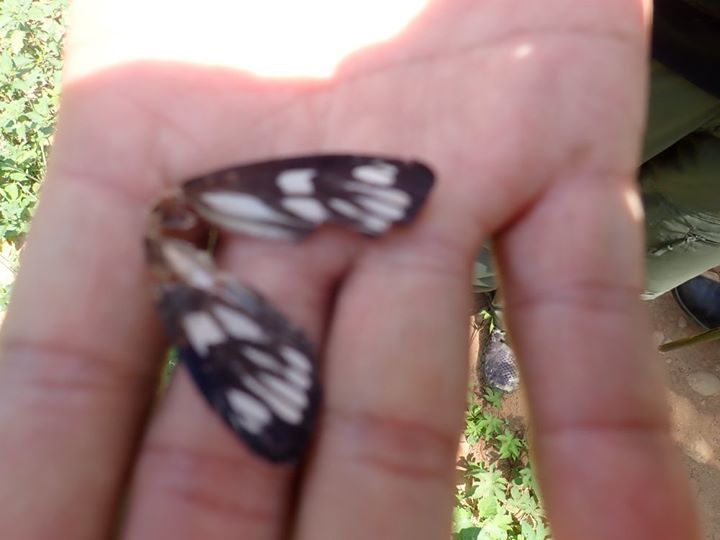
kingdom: Animalia
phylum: Arthropoda
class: Insecta
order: Lepidoptera
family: Erebidae
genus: Macrobrochis
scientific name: Macrobrochis gigas
